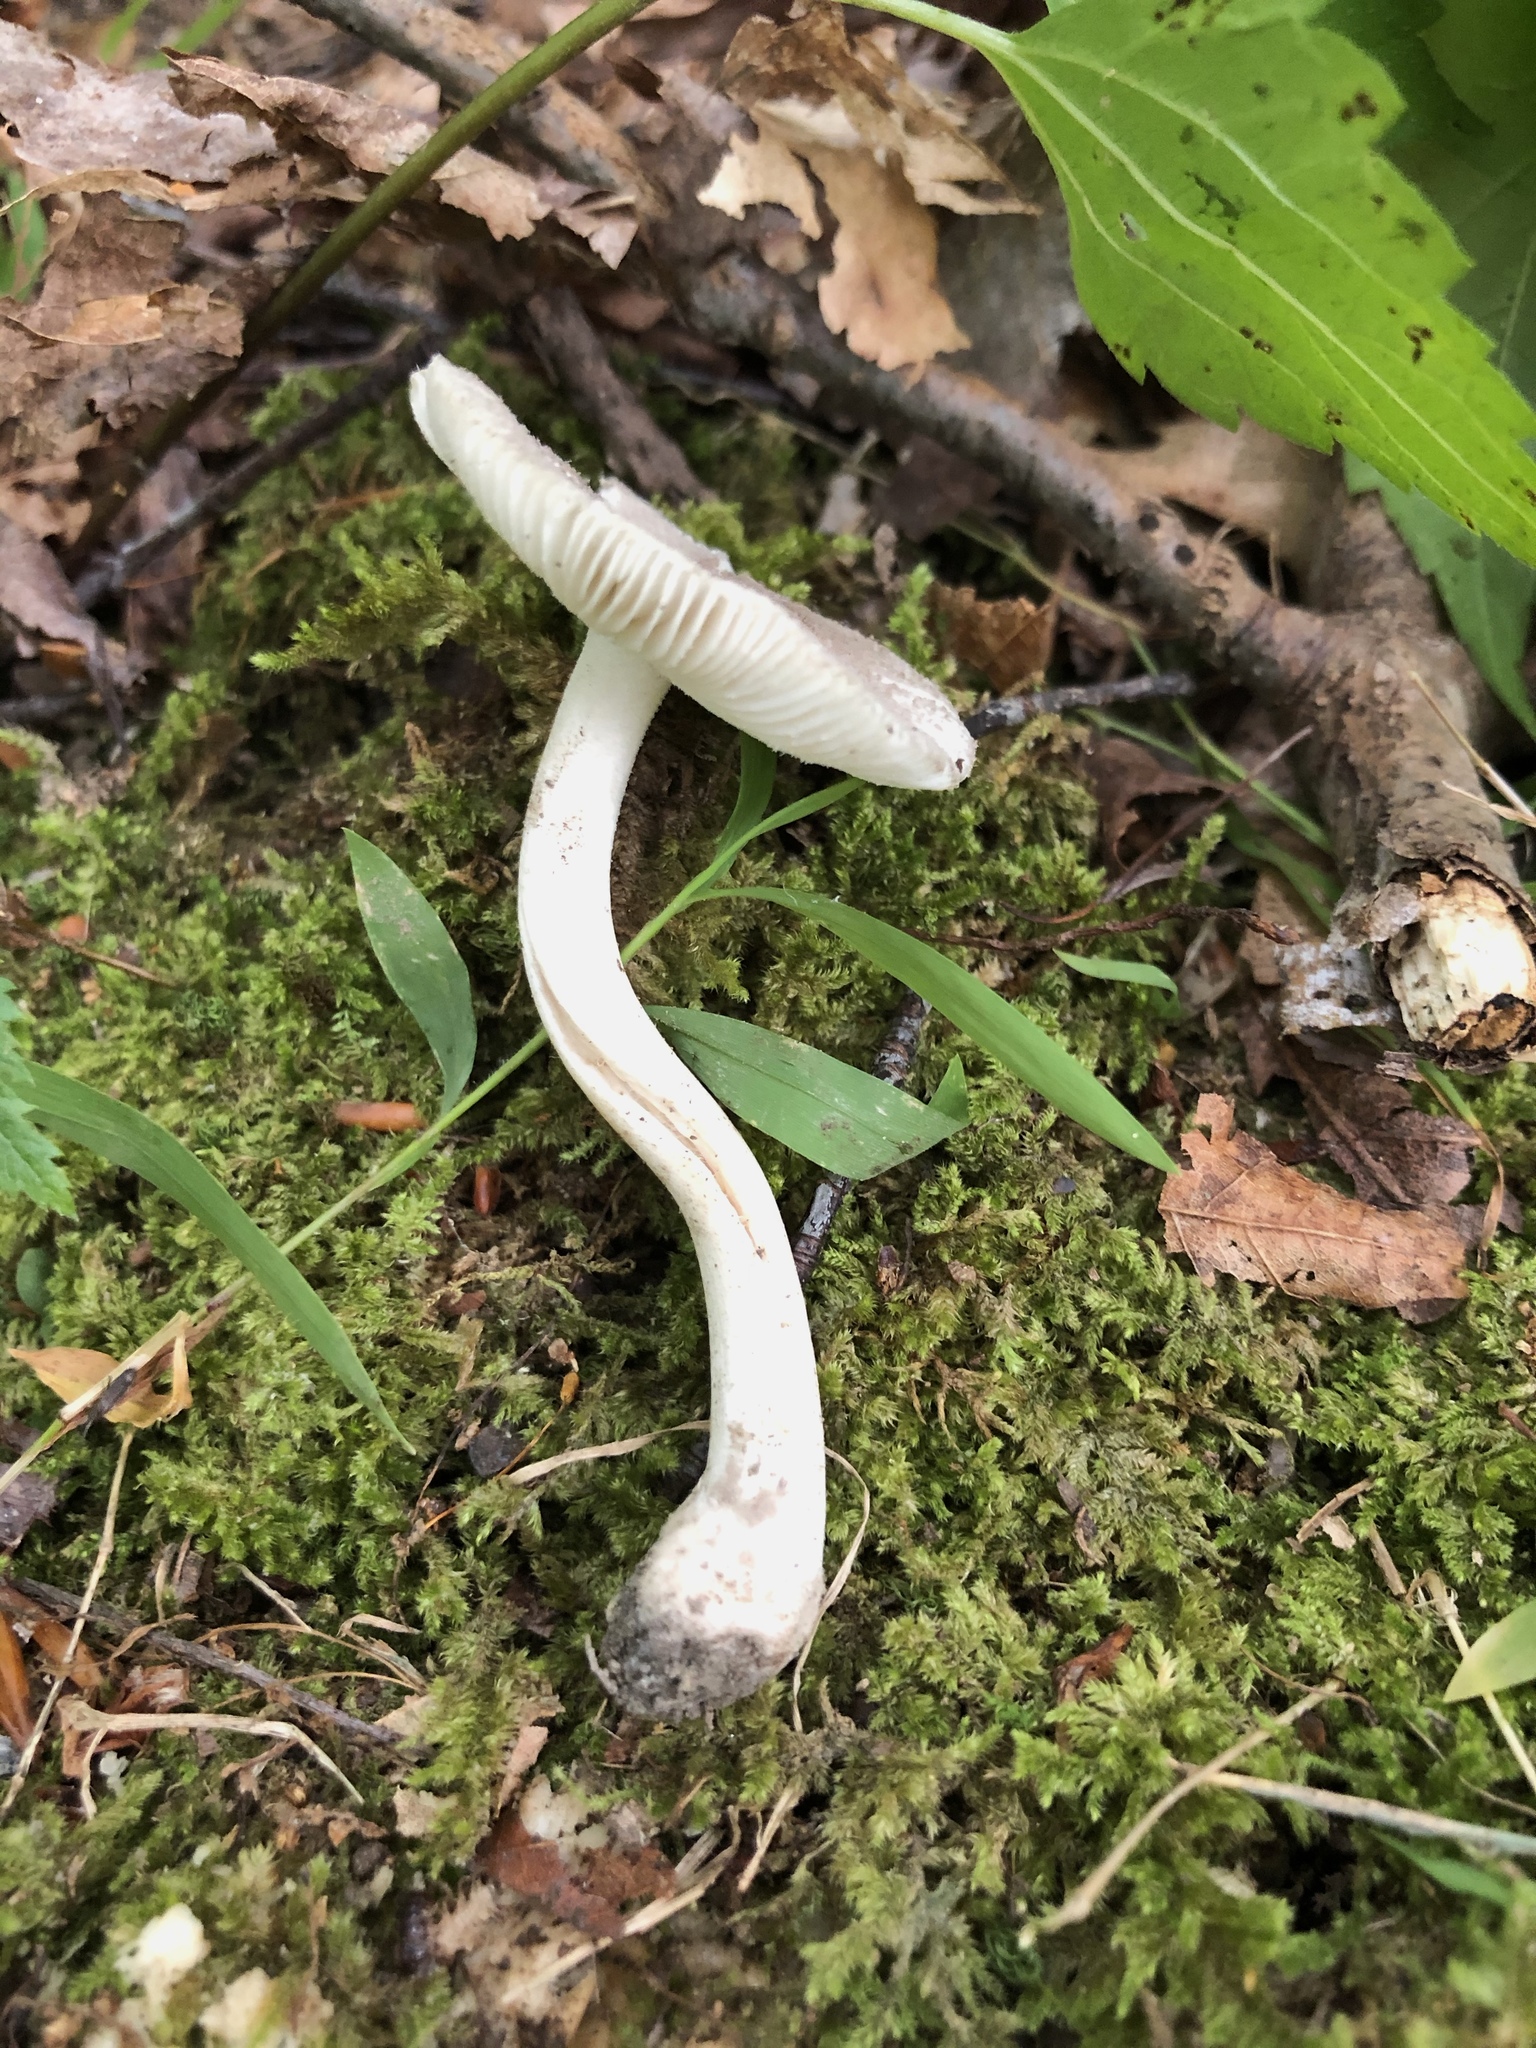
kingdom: Fungi
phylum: Basidiomycota
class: Agaricomycetes
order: Agaricales
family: Amanitaceae
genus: Amanita
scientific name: Amanita farinosa
